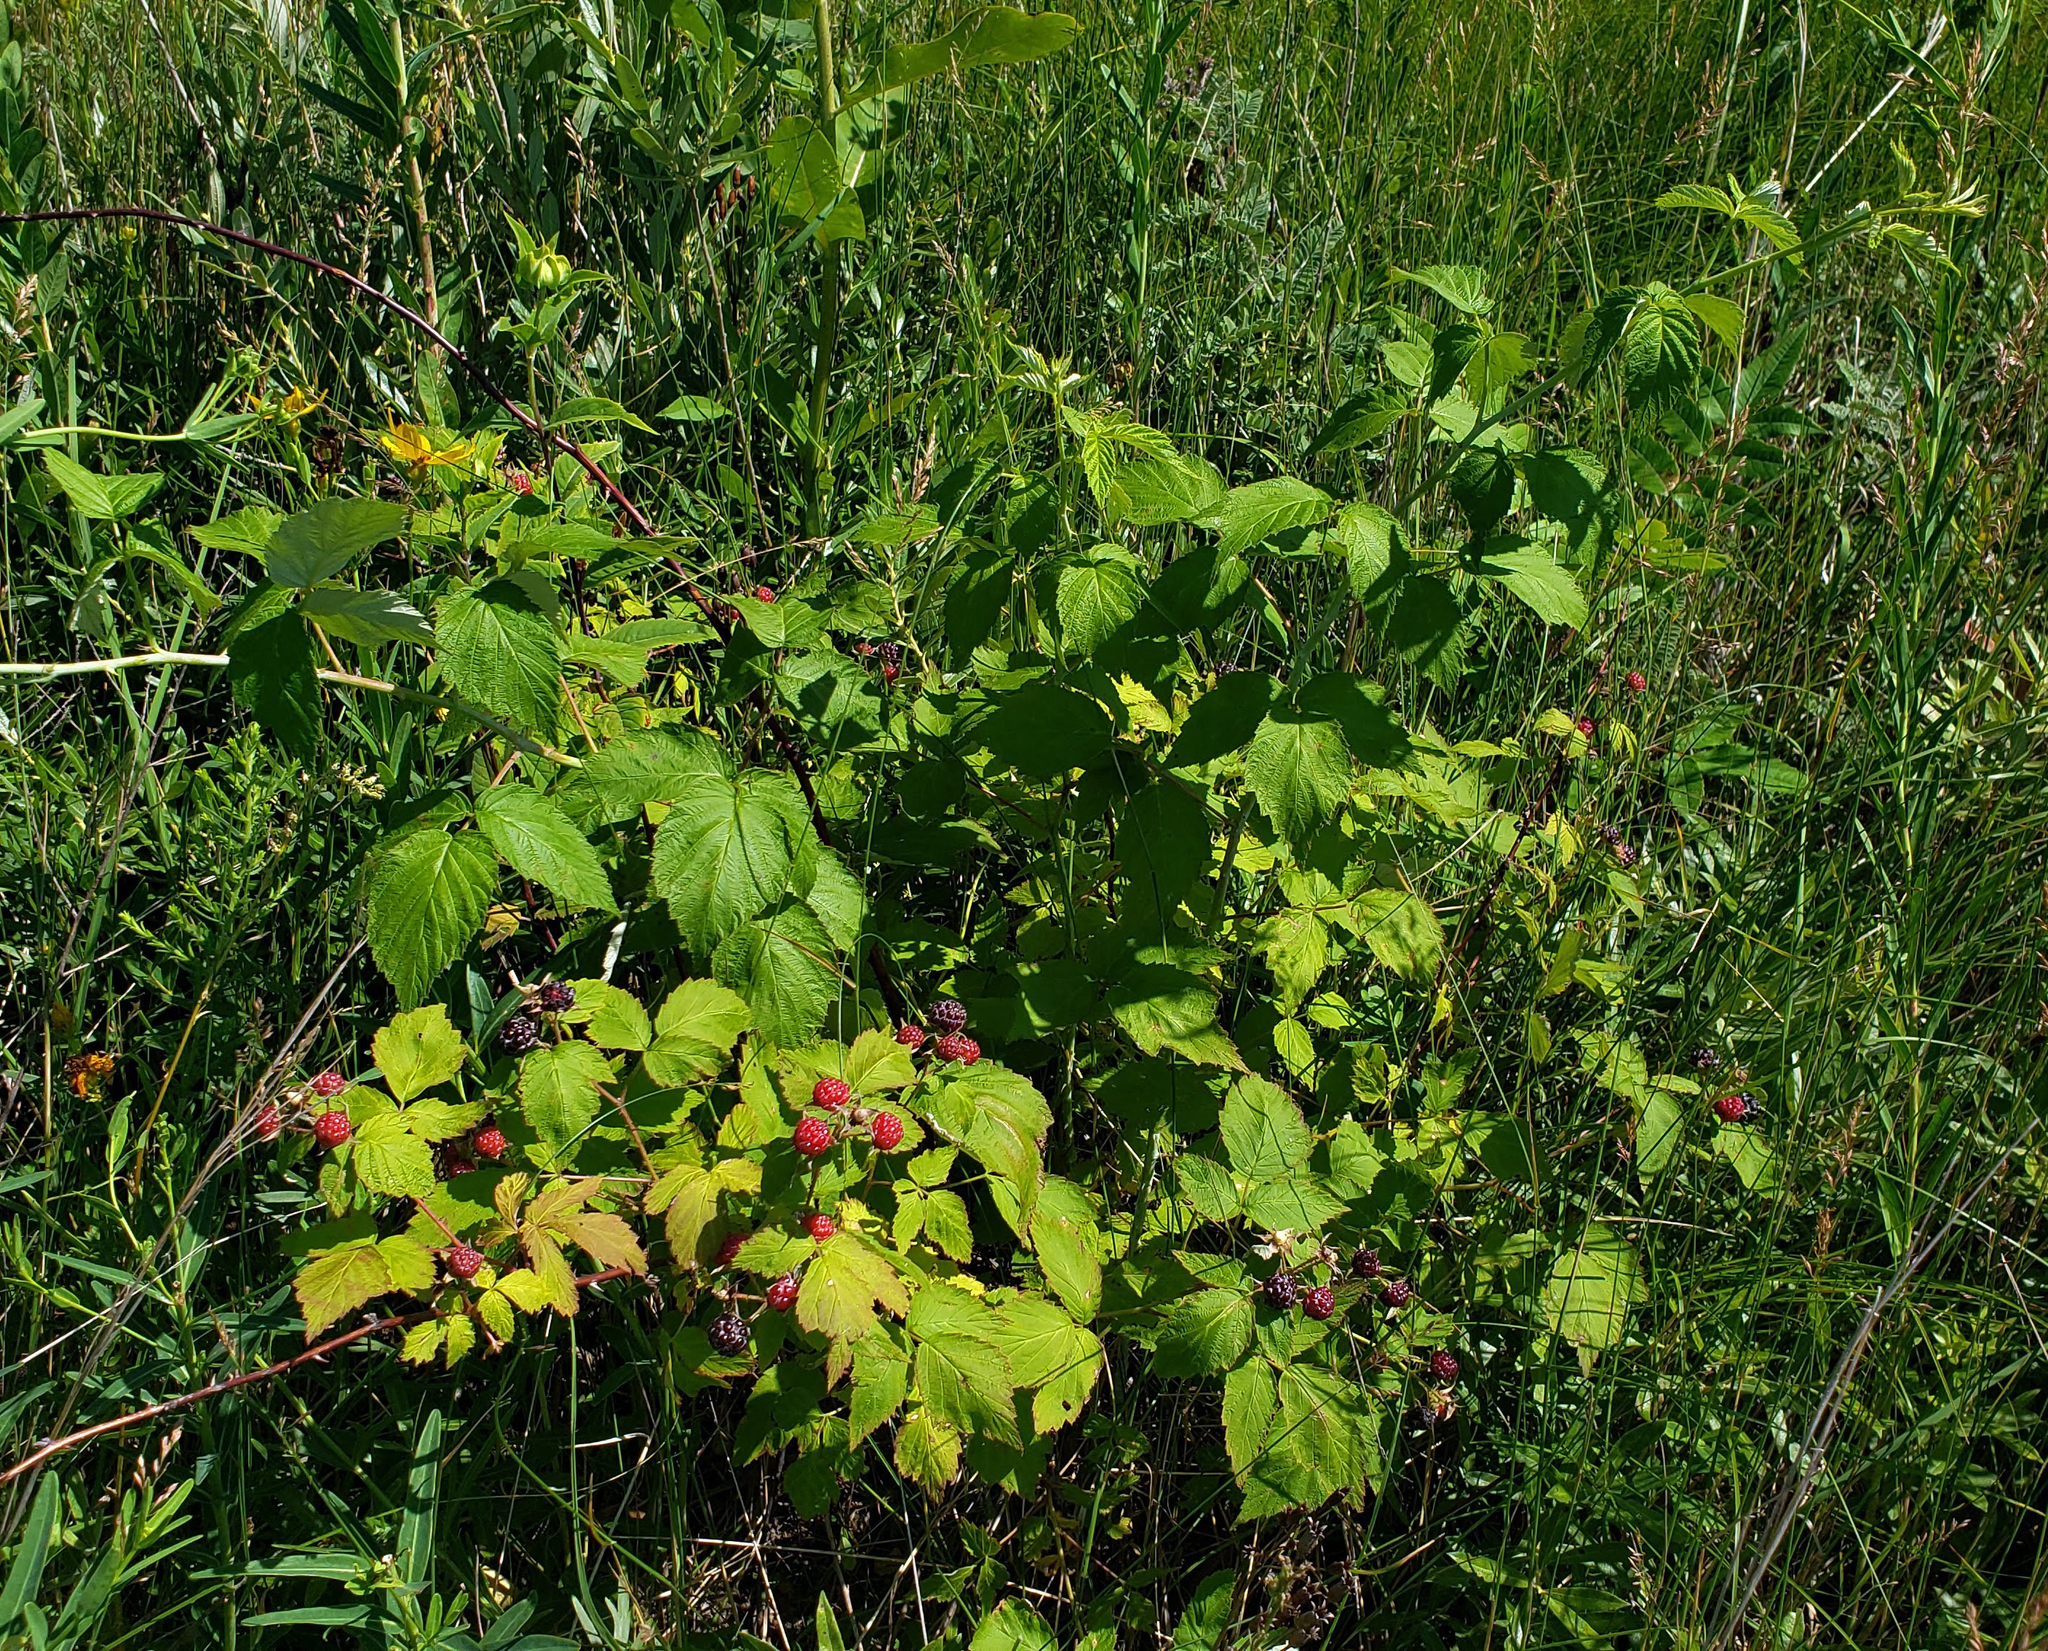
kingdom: Plantae
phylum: Tracheophyta
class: Magnoliopsida
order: Rosales
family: Rosaceae
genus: Rubus
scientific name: Rubus occidentalis
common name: Black raspberry
